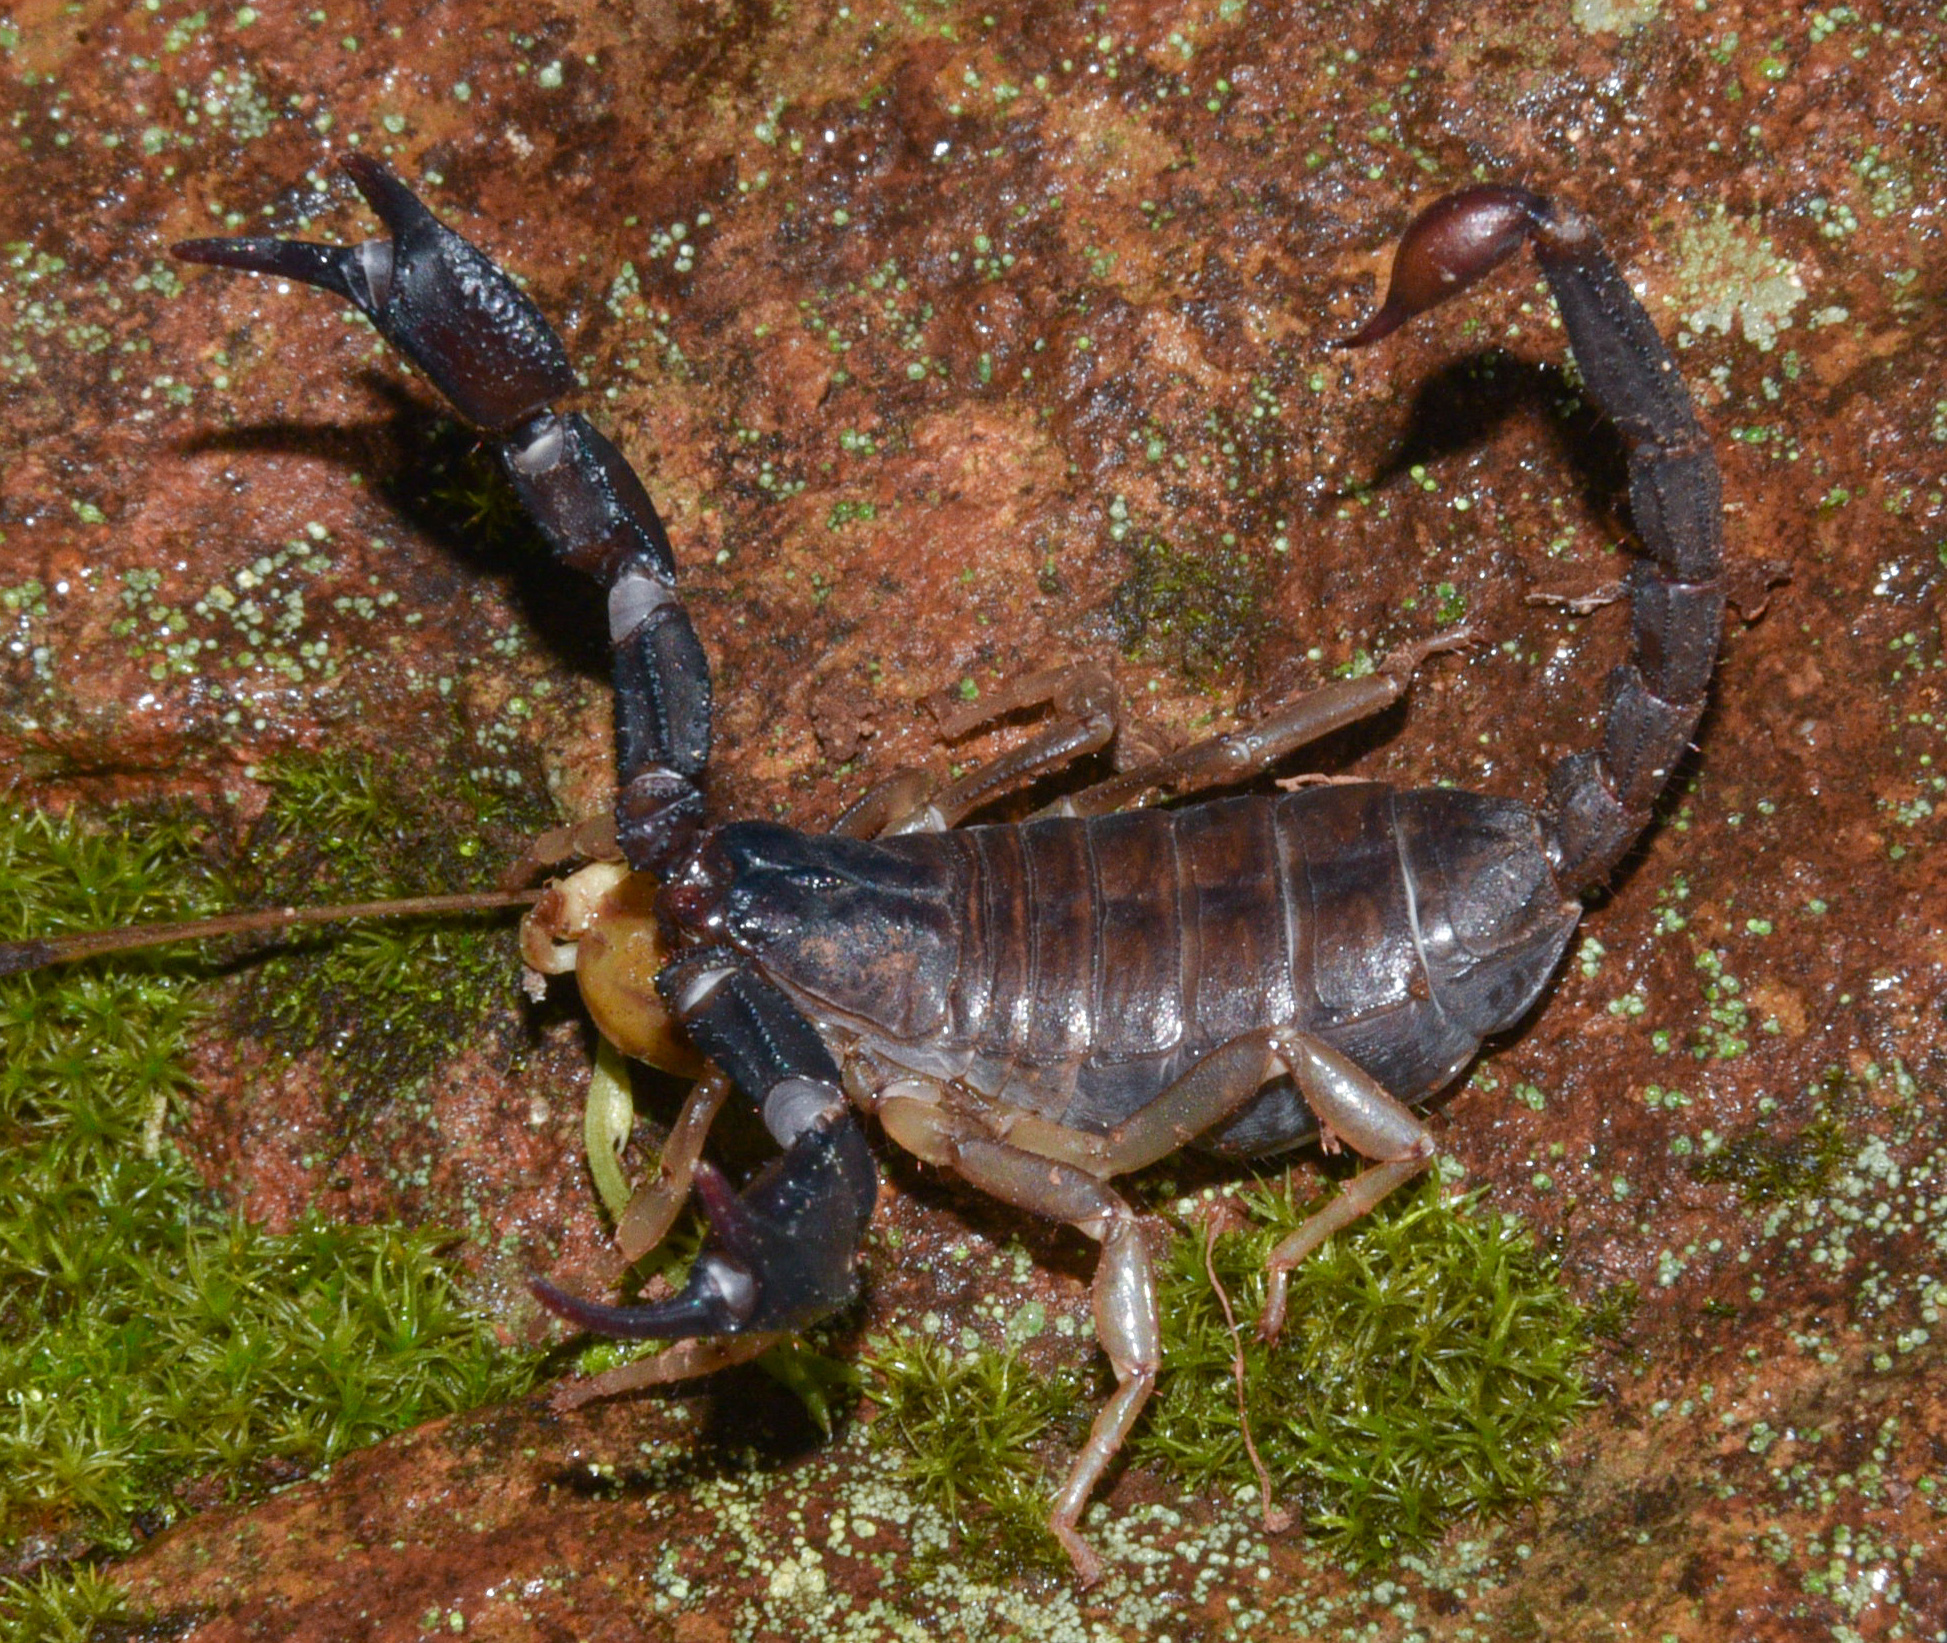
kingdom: Animalia
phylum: Arthropoda
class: Arachnida
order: Scorpiones
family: Chactidae
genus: Uroctonus
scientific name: Uroctonus mordax
